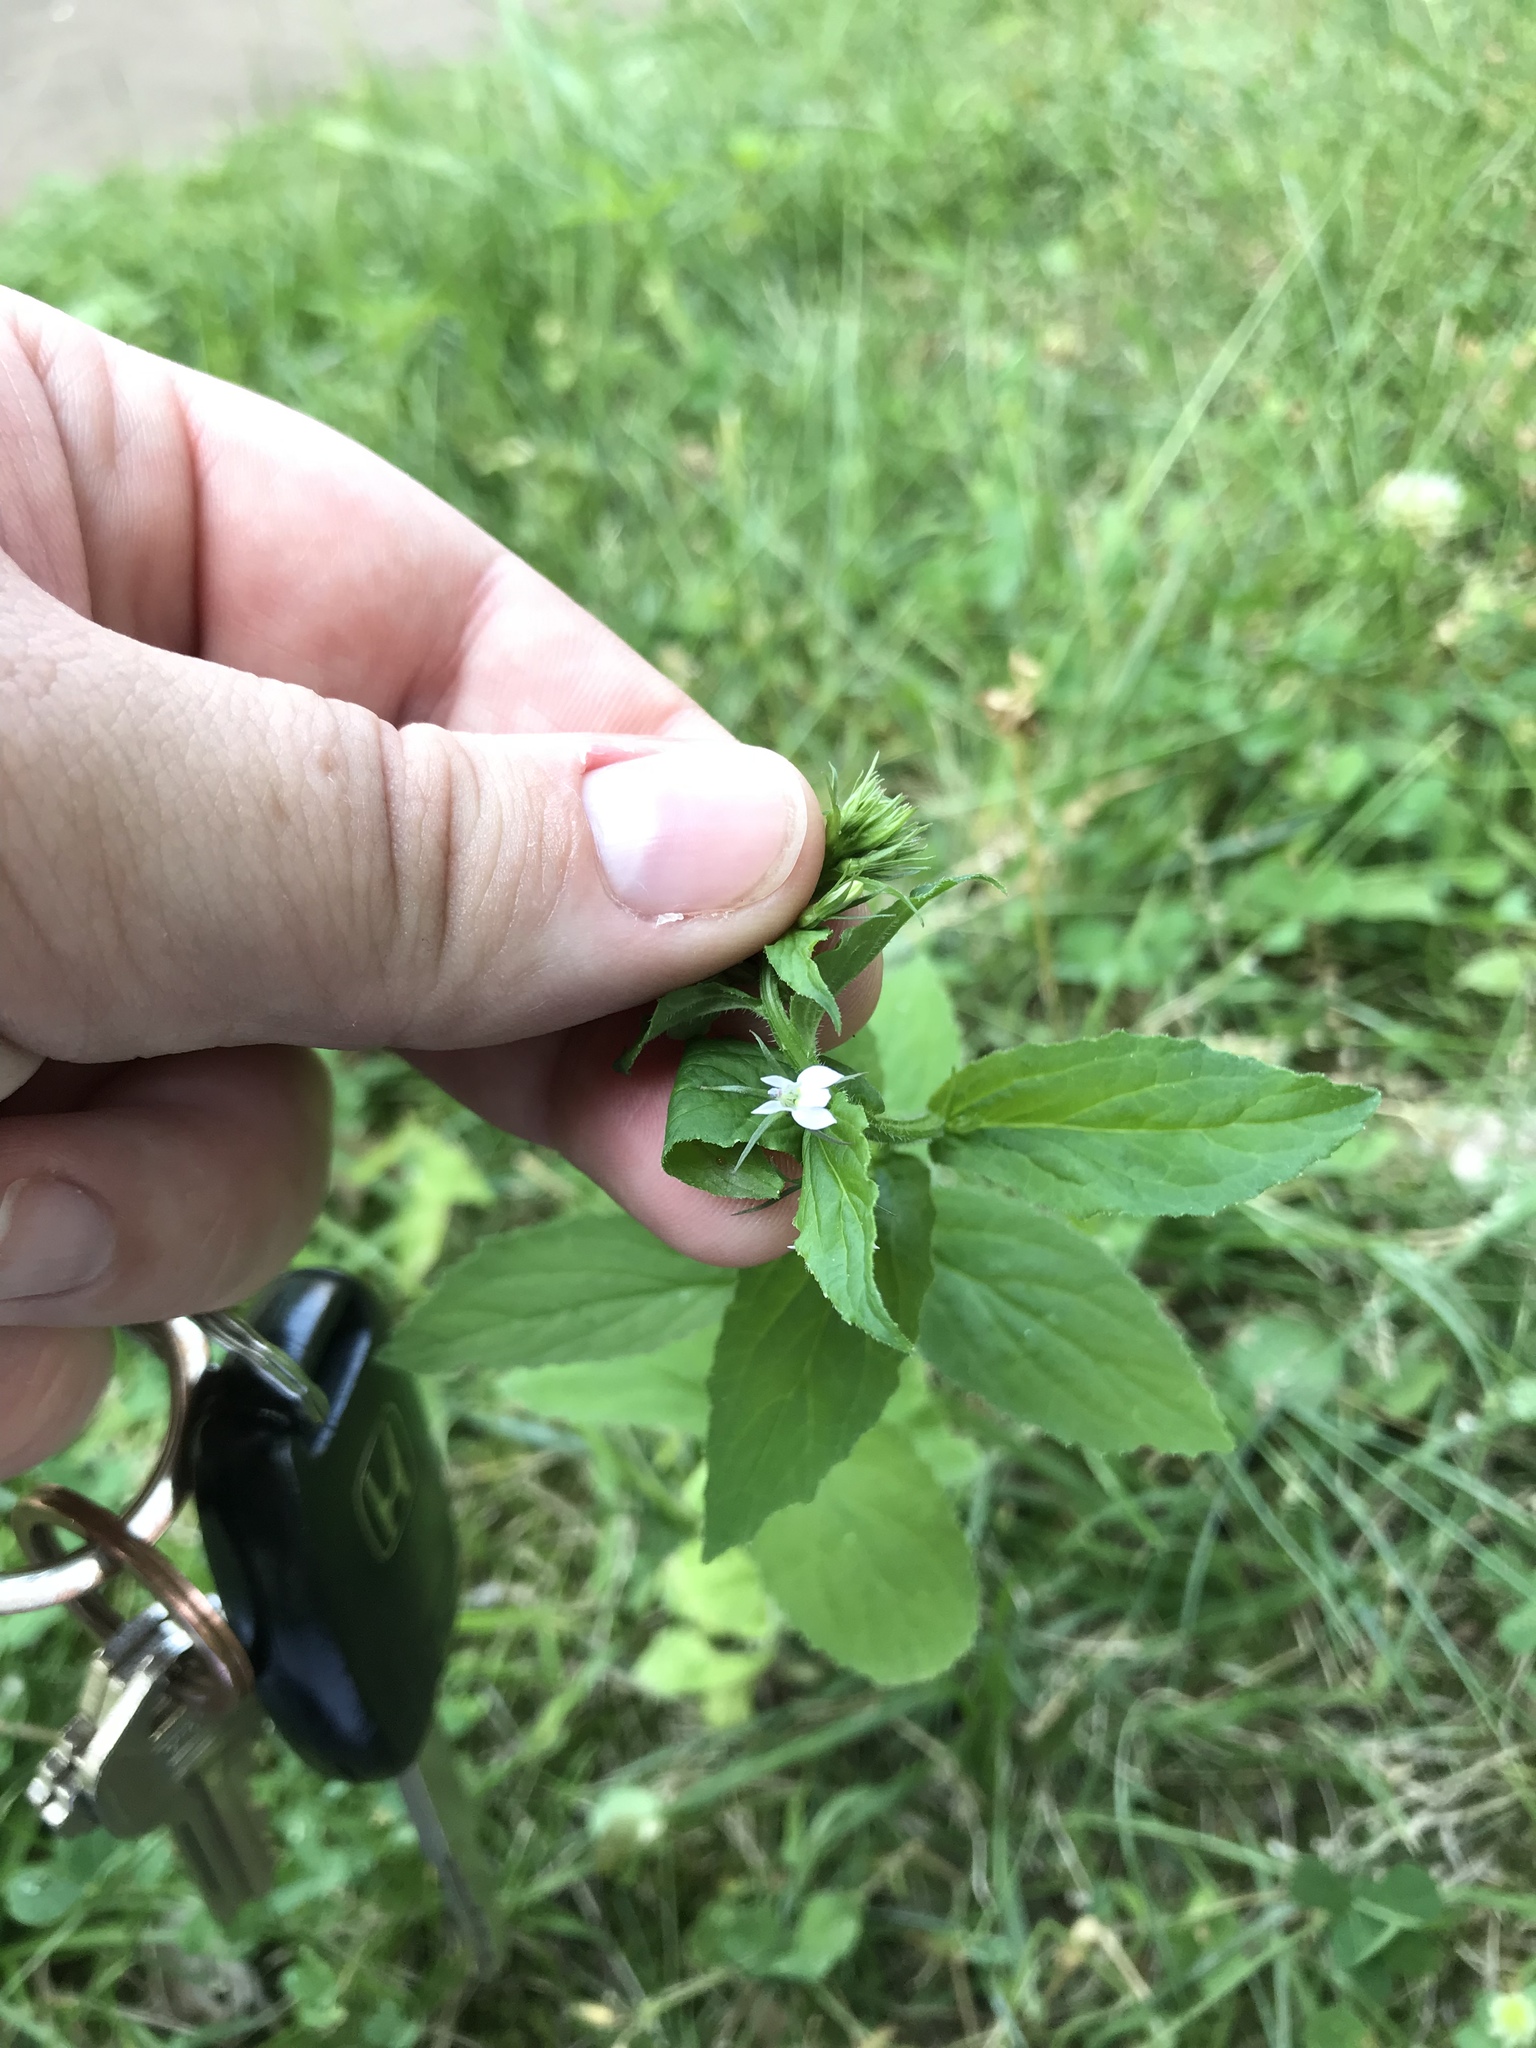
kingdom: Plantae
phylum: Tracheophyta
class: Magnoliopsida
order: Asterales
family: Campanulaceae
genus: Lobelia
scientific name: Lobelia inflata
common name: Indian tobacco
